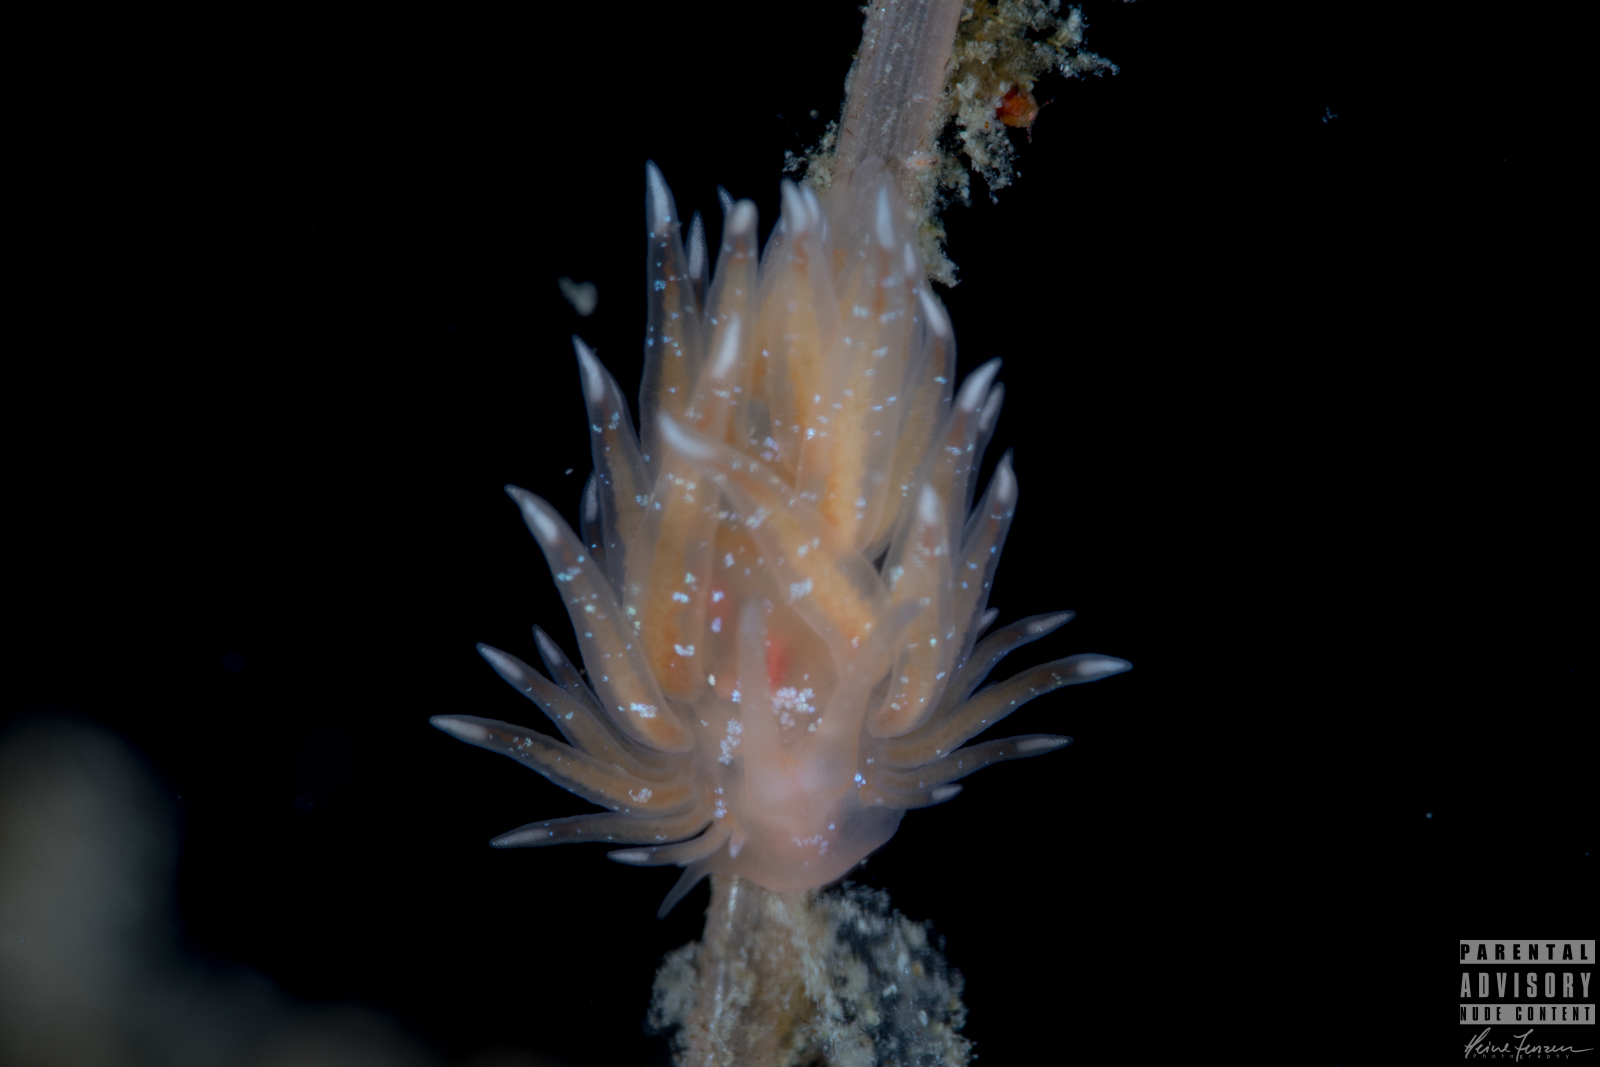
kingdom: Animalia
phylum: Mollusca
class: Gastropoda
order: Nudibranchia
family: Cumanotidae
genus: Cumanotus
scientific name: Cumanotus beaumonti
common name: Polyp aeolis
